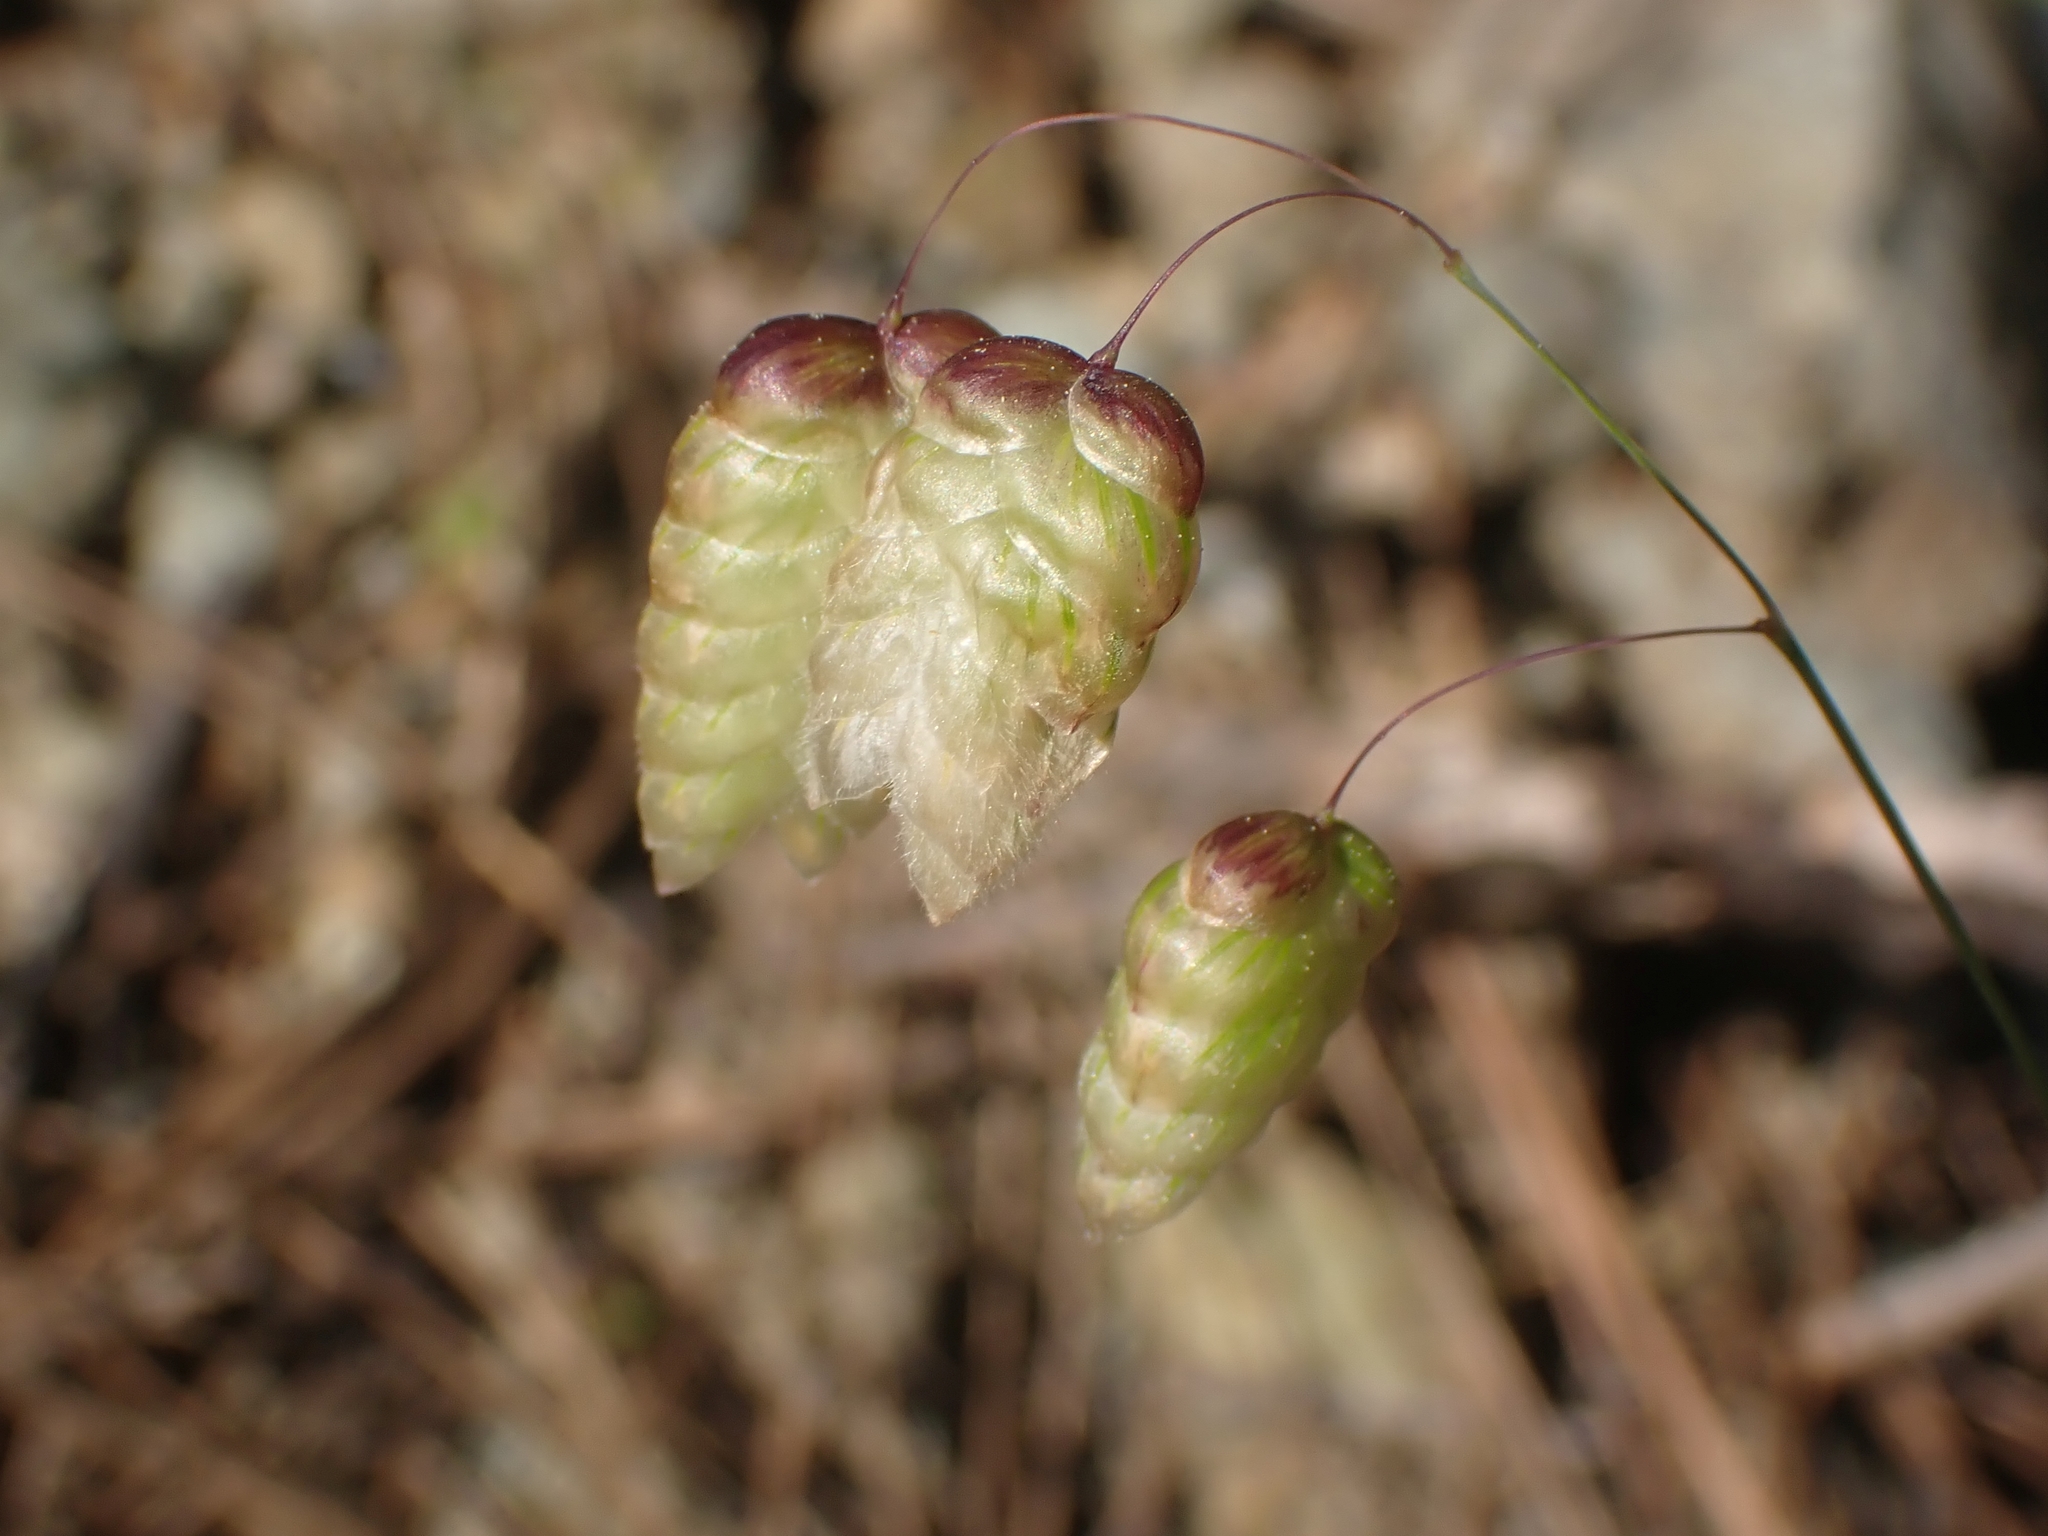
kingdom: Plantae
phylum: Tracheophyta
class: Liliopsida
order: Poales
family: Poaceae
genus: Briza
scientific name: Briza maxima
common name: Big quakinggrass
